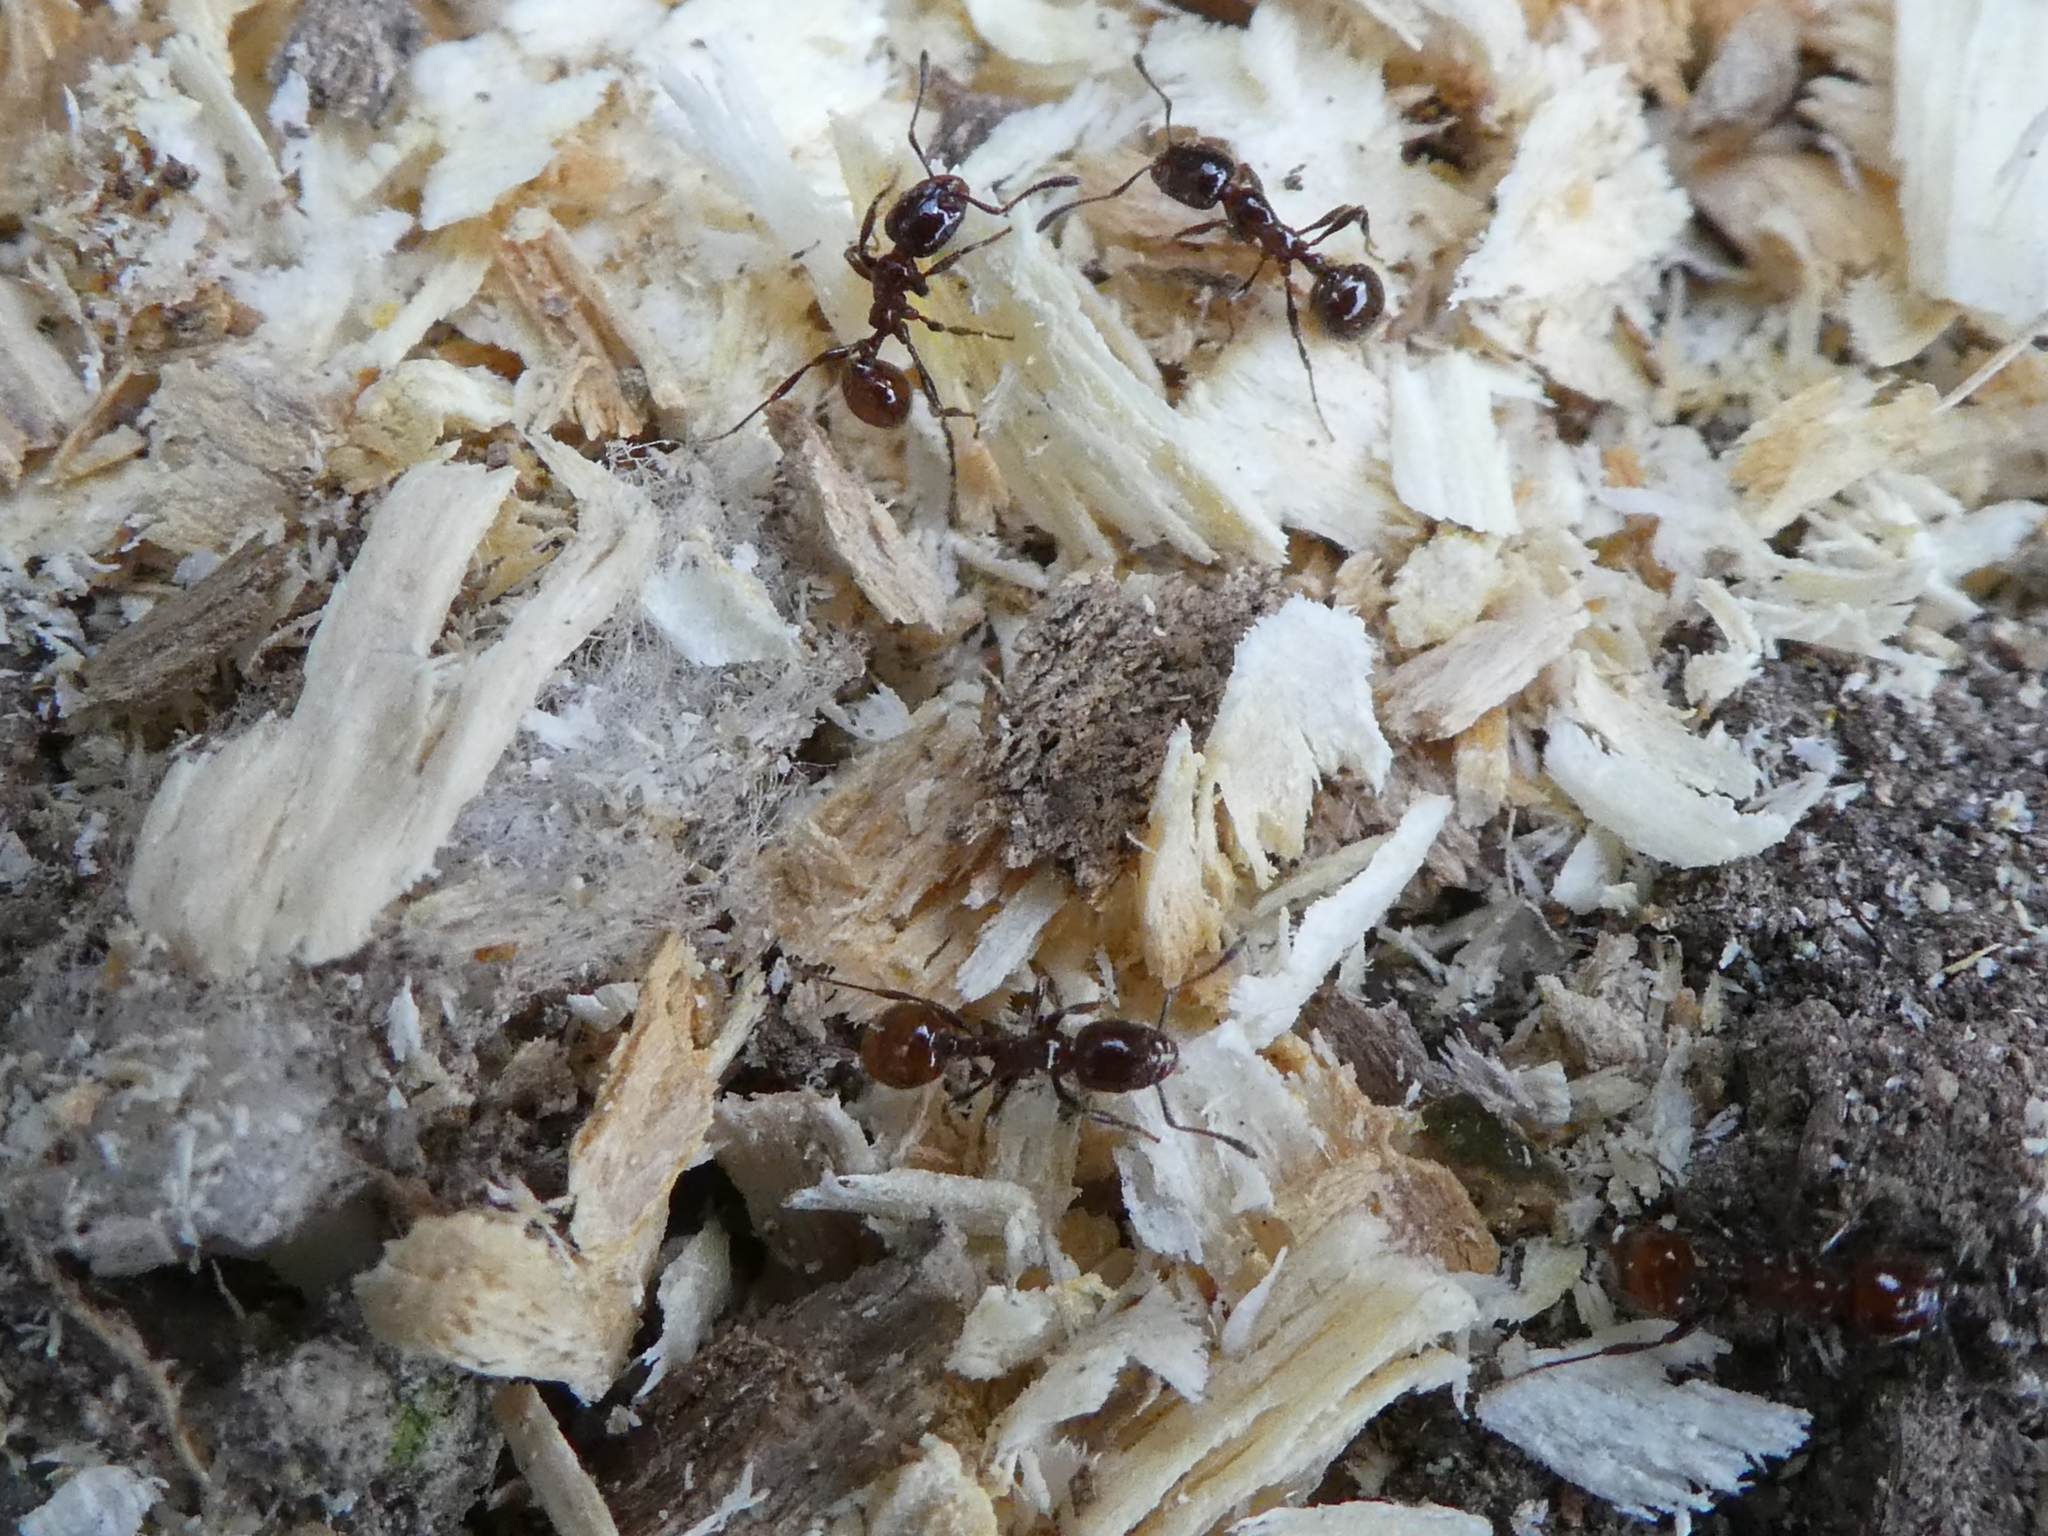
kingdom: Animalia
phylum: Arthropoda
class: Insecta
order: Hymenoptera
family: Formicidae
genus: Monomorium
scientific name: Monomorium antarcticum
